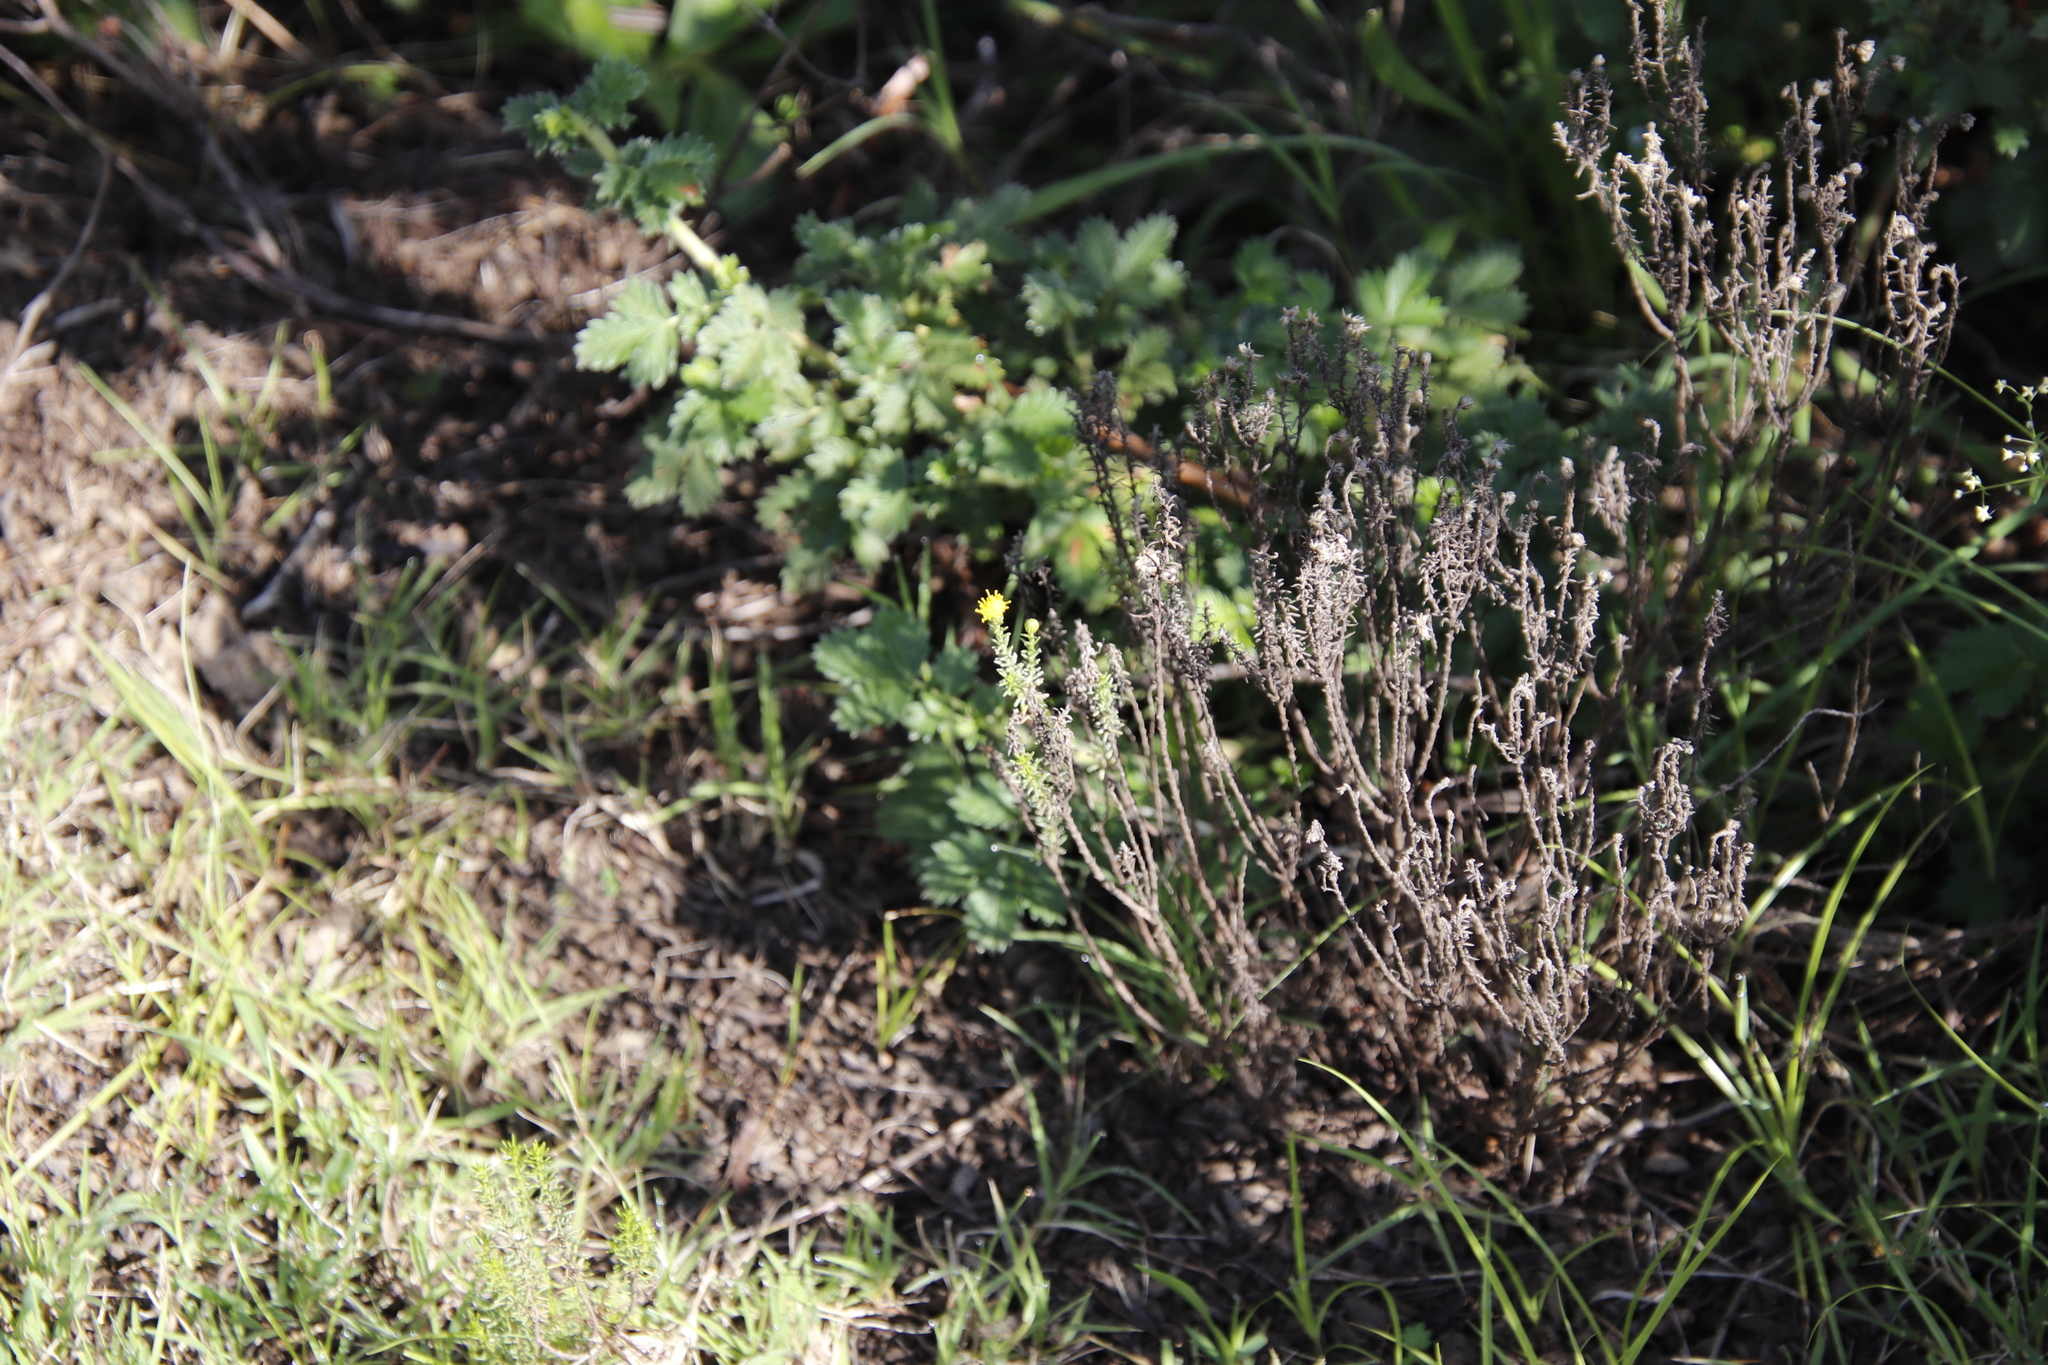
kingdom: Plantae
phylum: Tracheophyta
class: Magnoliopsida
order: Asterales
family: Asteraceae
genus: Chrysocoma
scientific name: Chrysocoma ciliata
